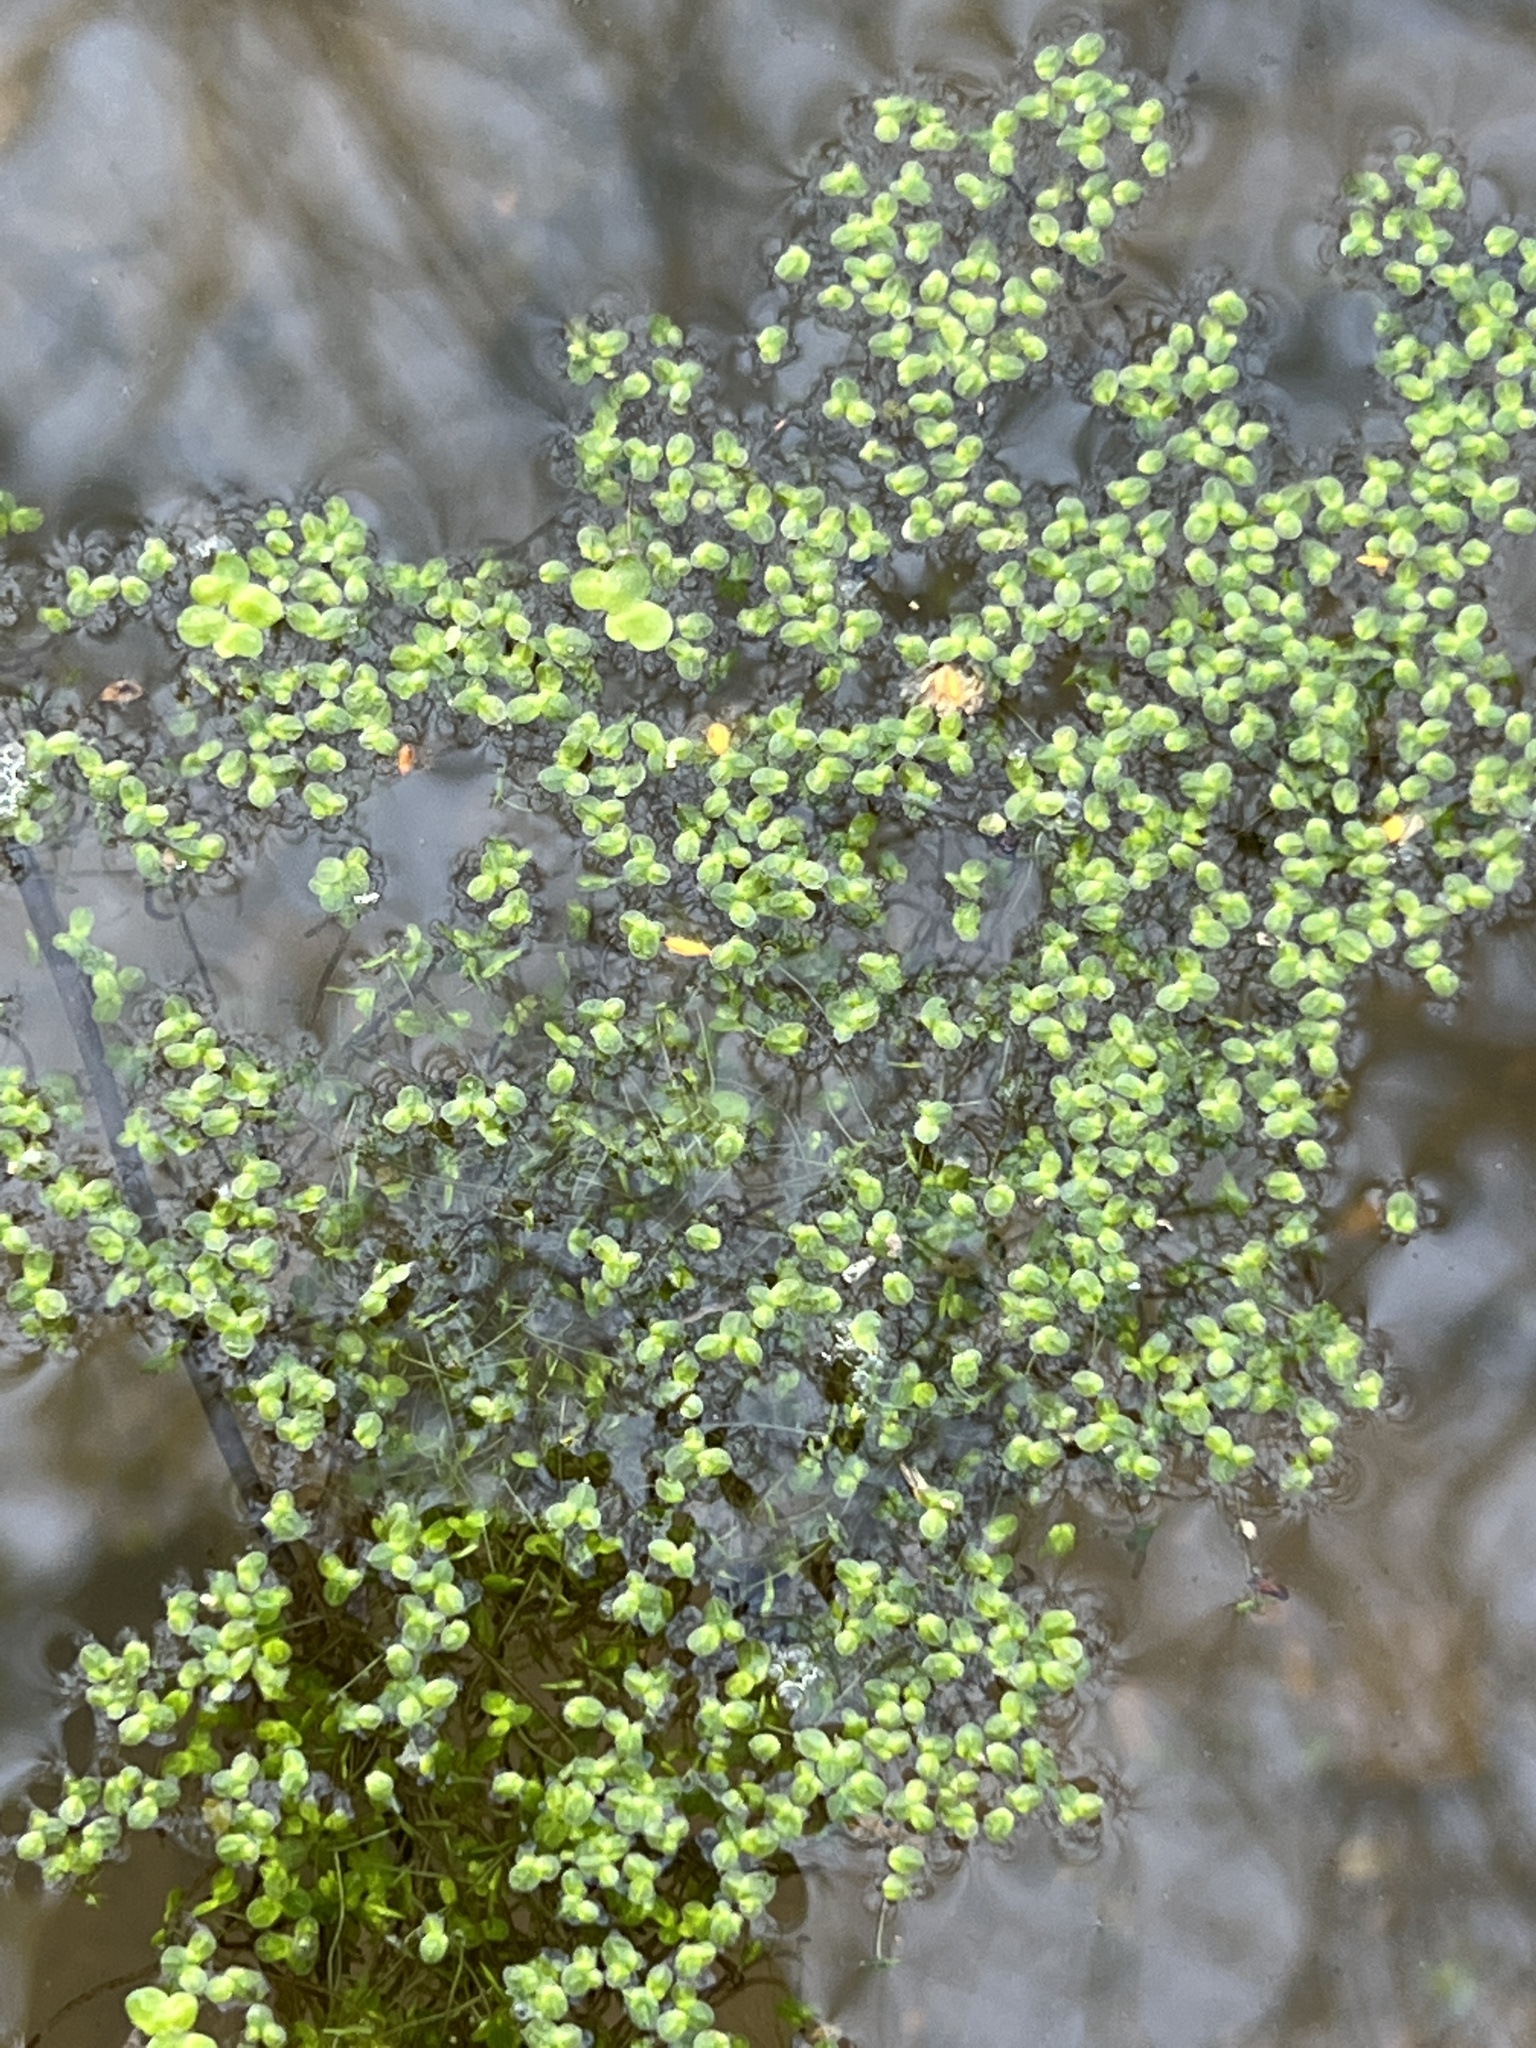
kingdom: Plantae
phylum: Tracheophyta
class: Liliopsida
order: Alismatales
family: Araceae
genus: Lemna
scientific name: Lemna minor
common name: Common duckweed
